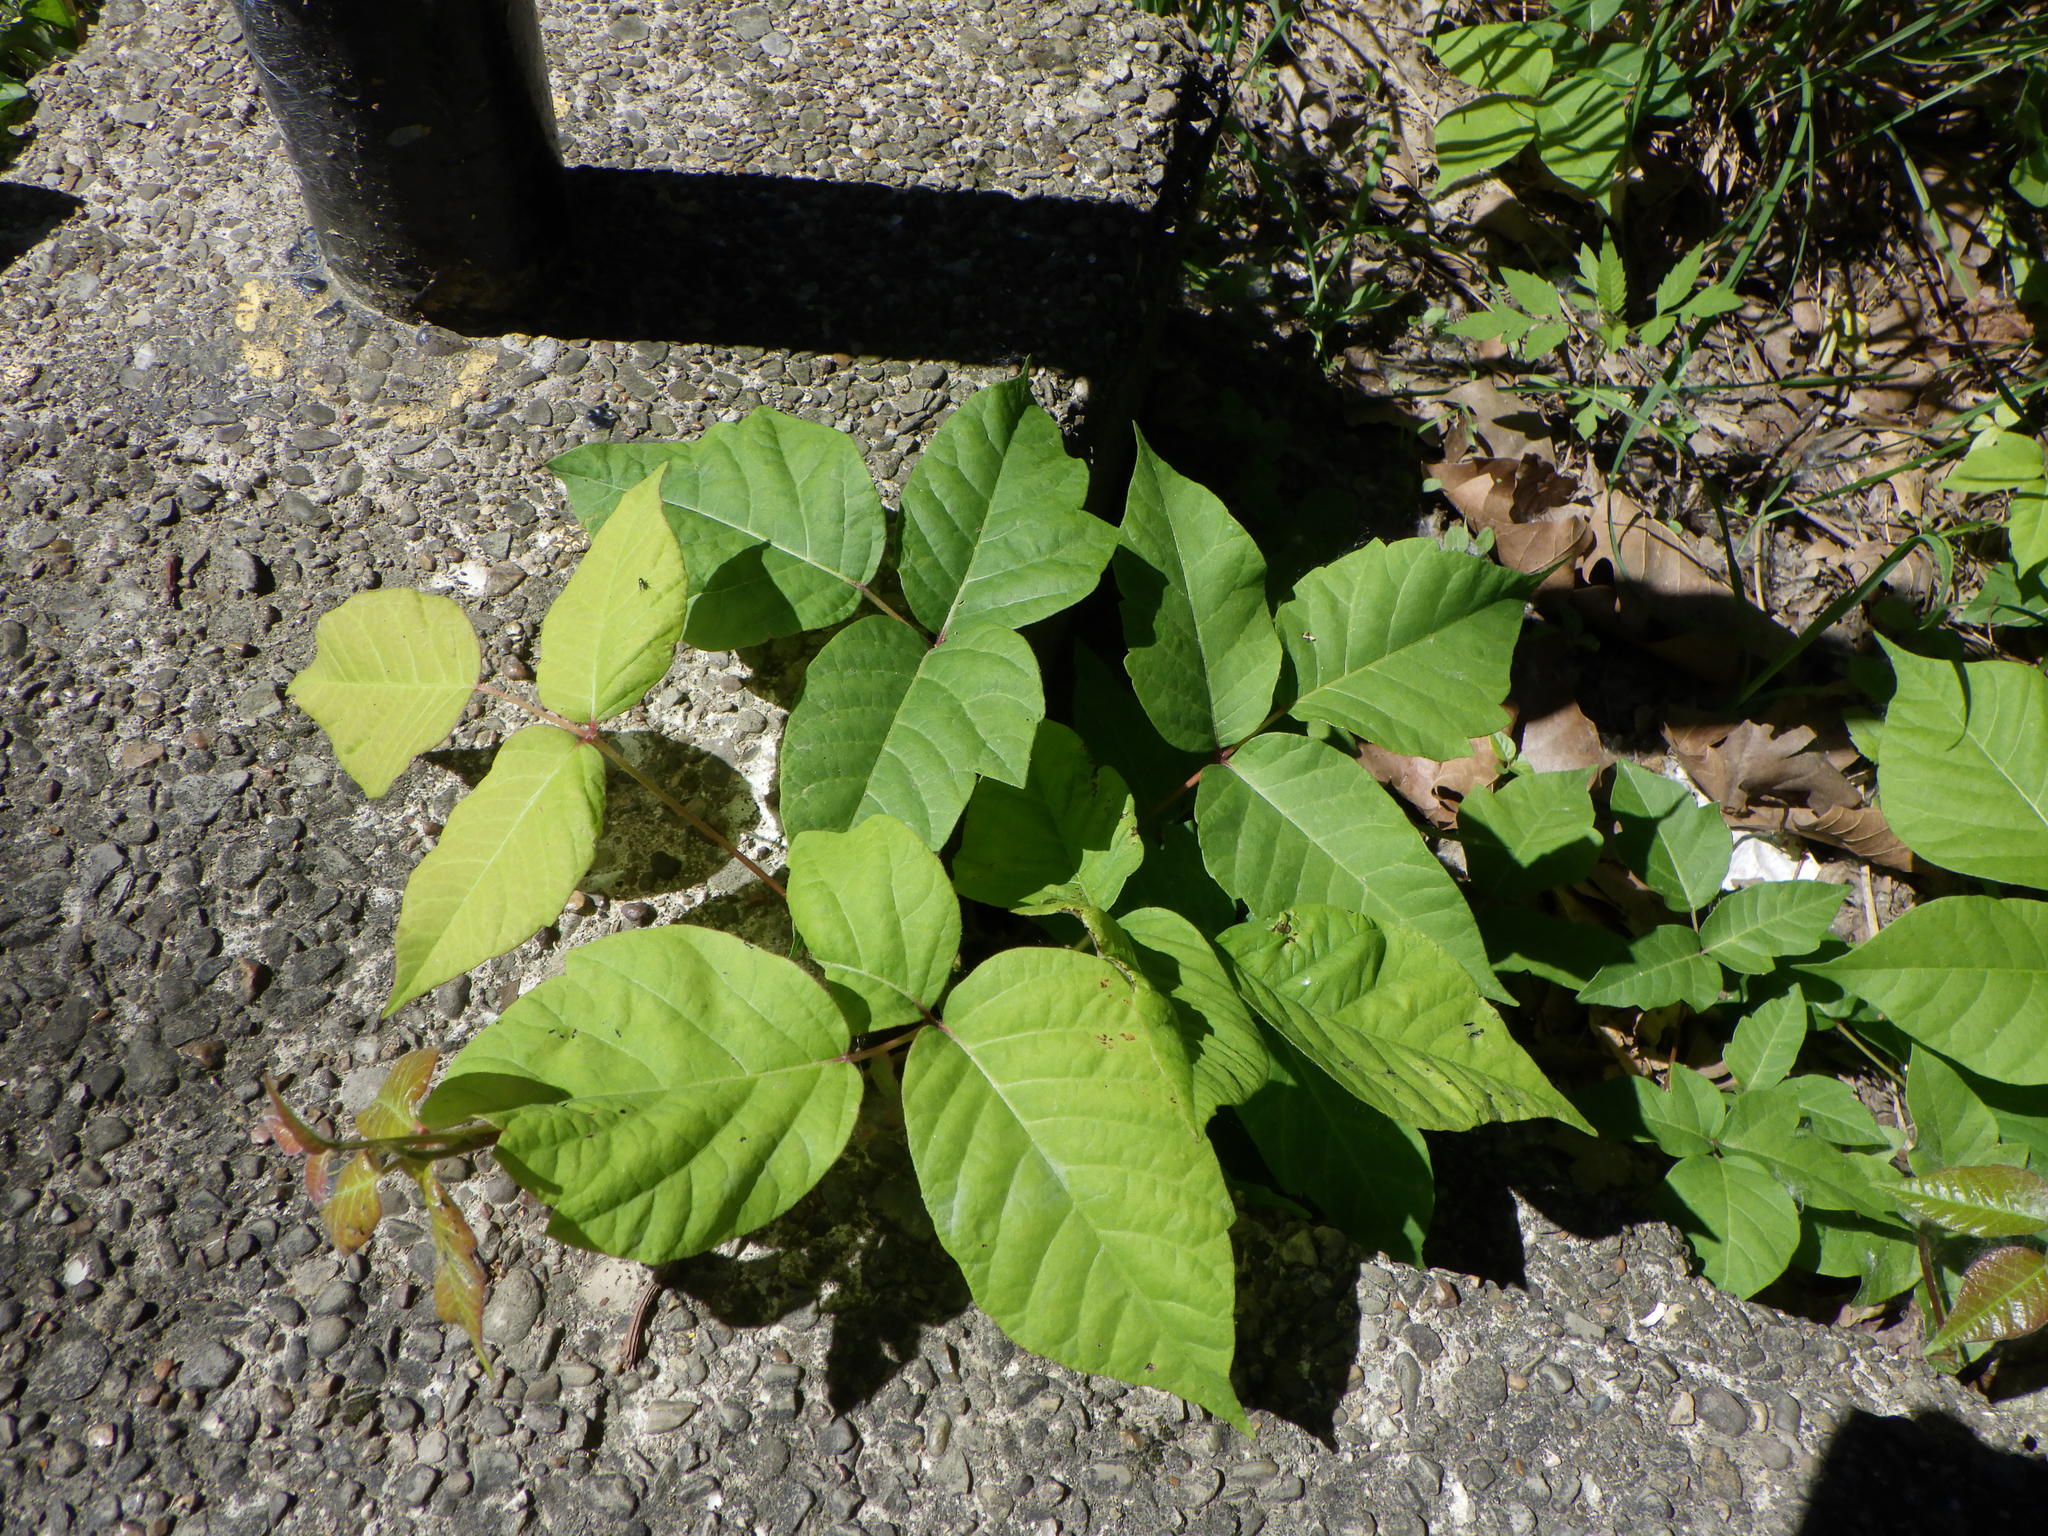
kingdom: Plantae
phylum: Tracheophyta
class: Magnoliopsida
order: Sapindales
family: Anacardiaceae
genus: Toxicodendron
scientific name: Toxicodendron radicans
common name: Poison ivy
